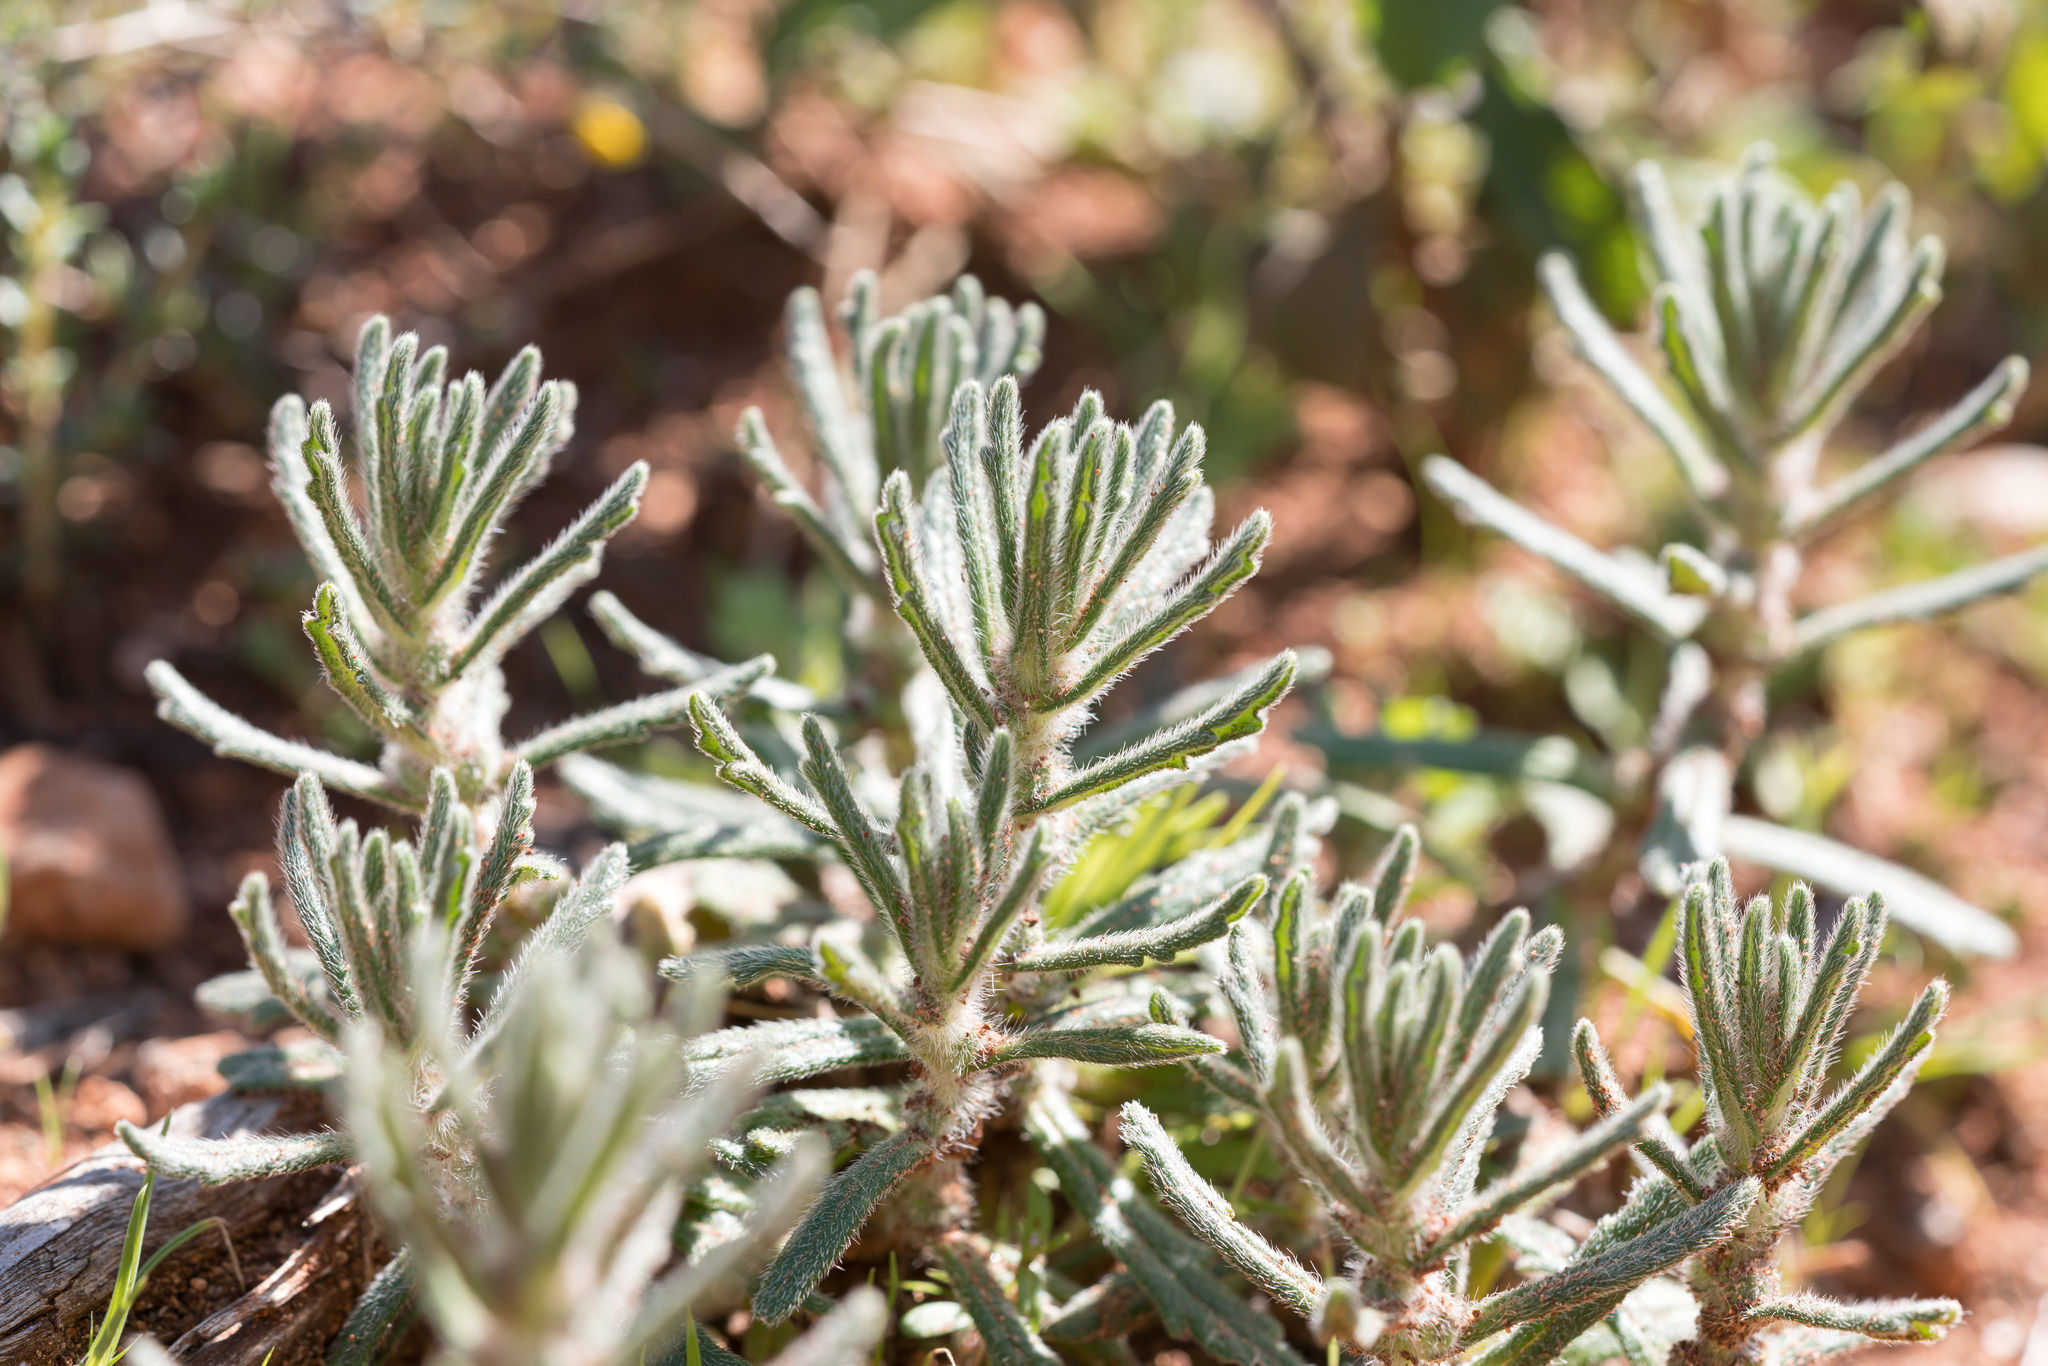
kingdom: Plantae
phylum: Tracheophyta
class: Magnoliopsida
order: Lamiales
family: Lamiaceae
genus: Ajuga
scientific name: Ajuga iva
